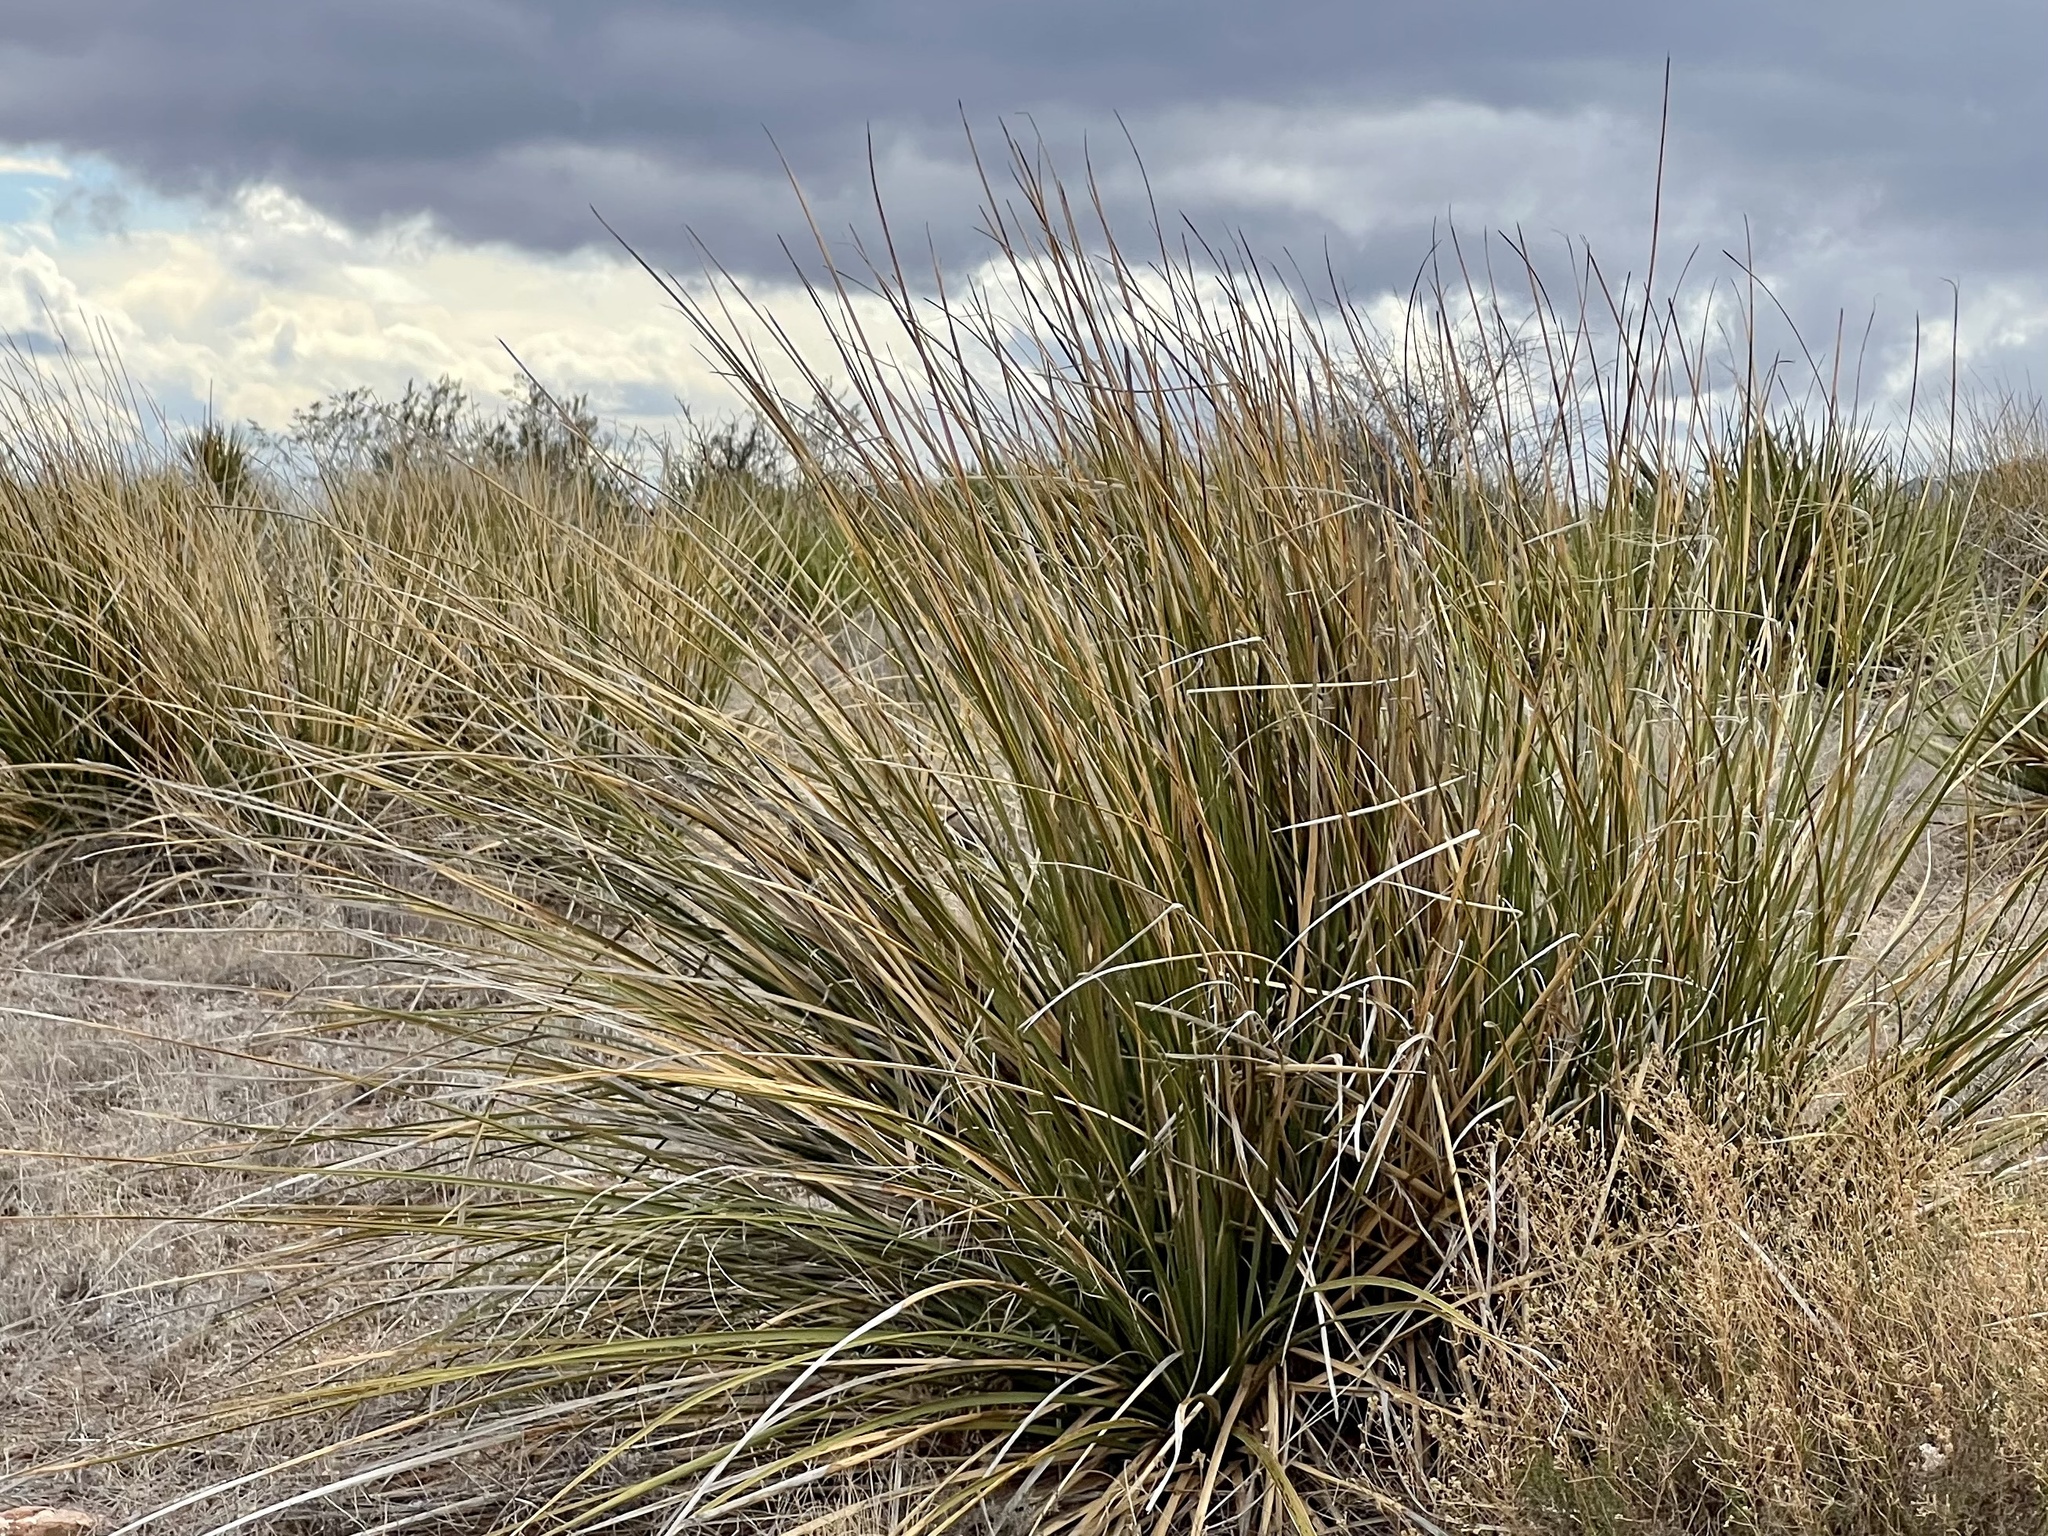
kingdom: Plantae
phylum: Tracheophyta
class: Liliopsida
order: Asparagales
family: Asparagaceae
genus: Nolina
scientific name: Nolina microcarpa
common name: Bear-grass
